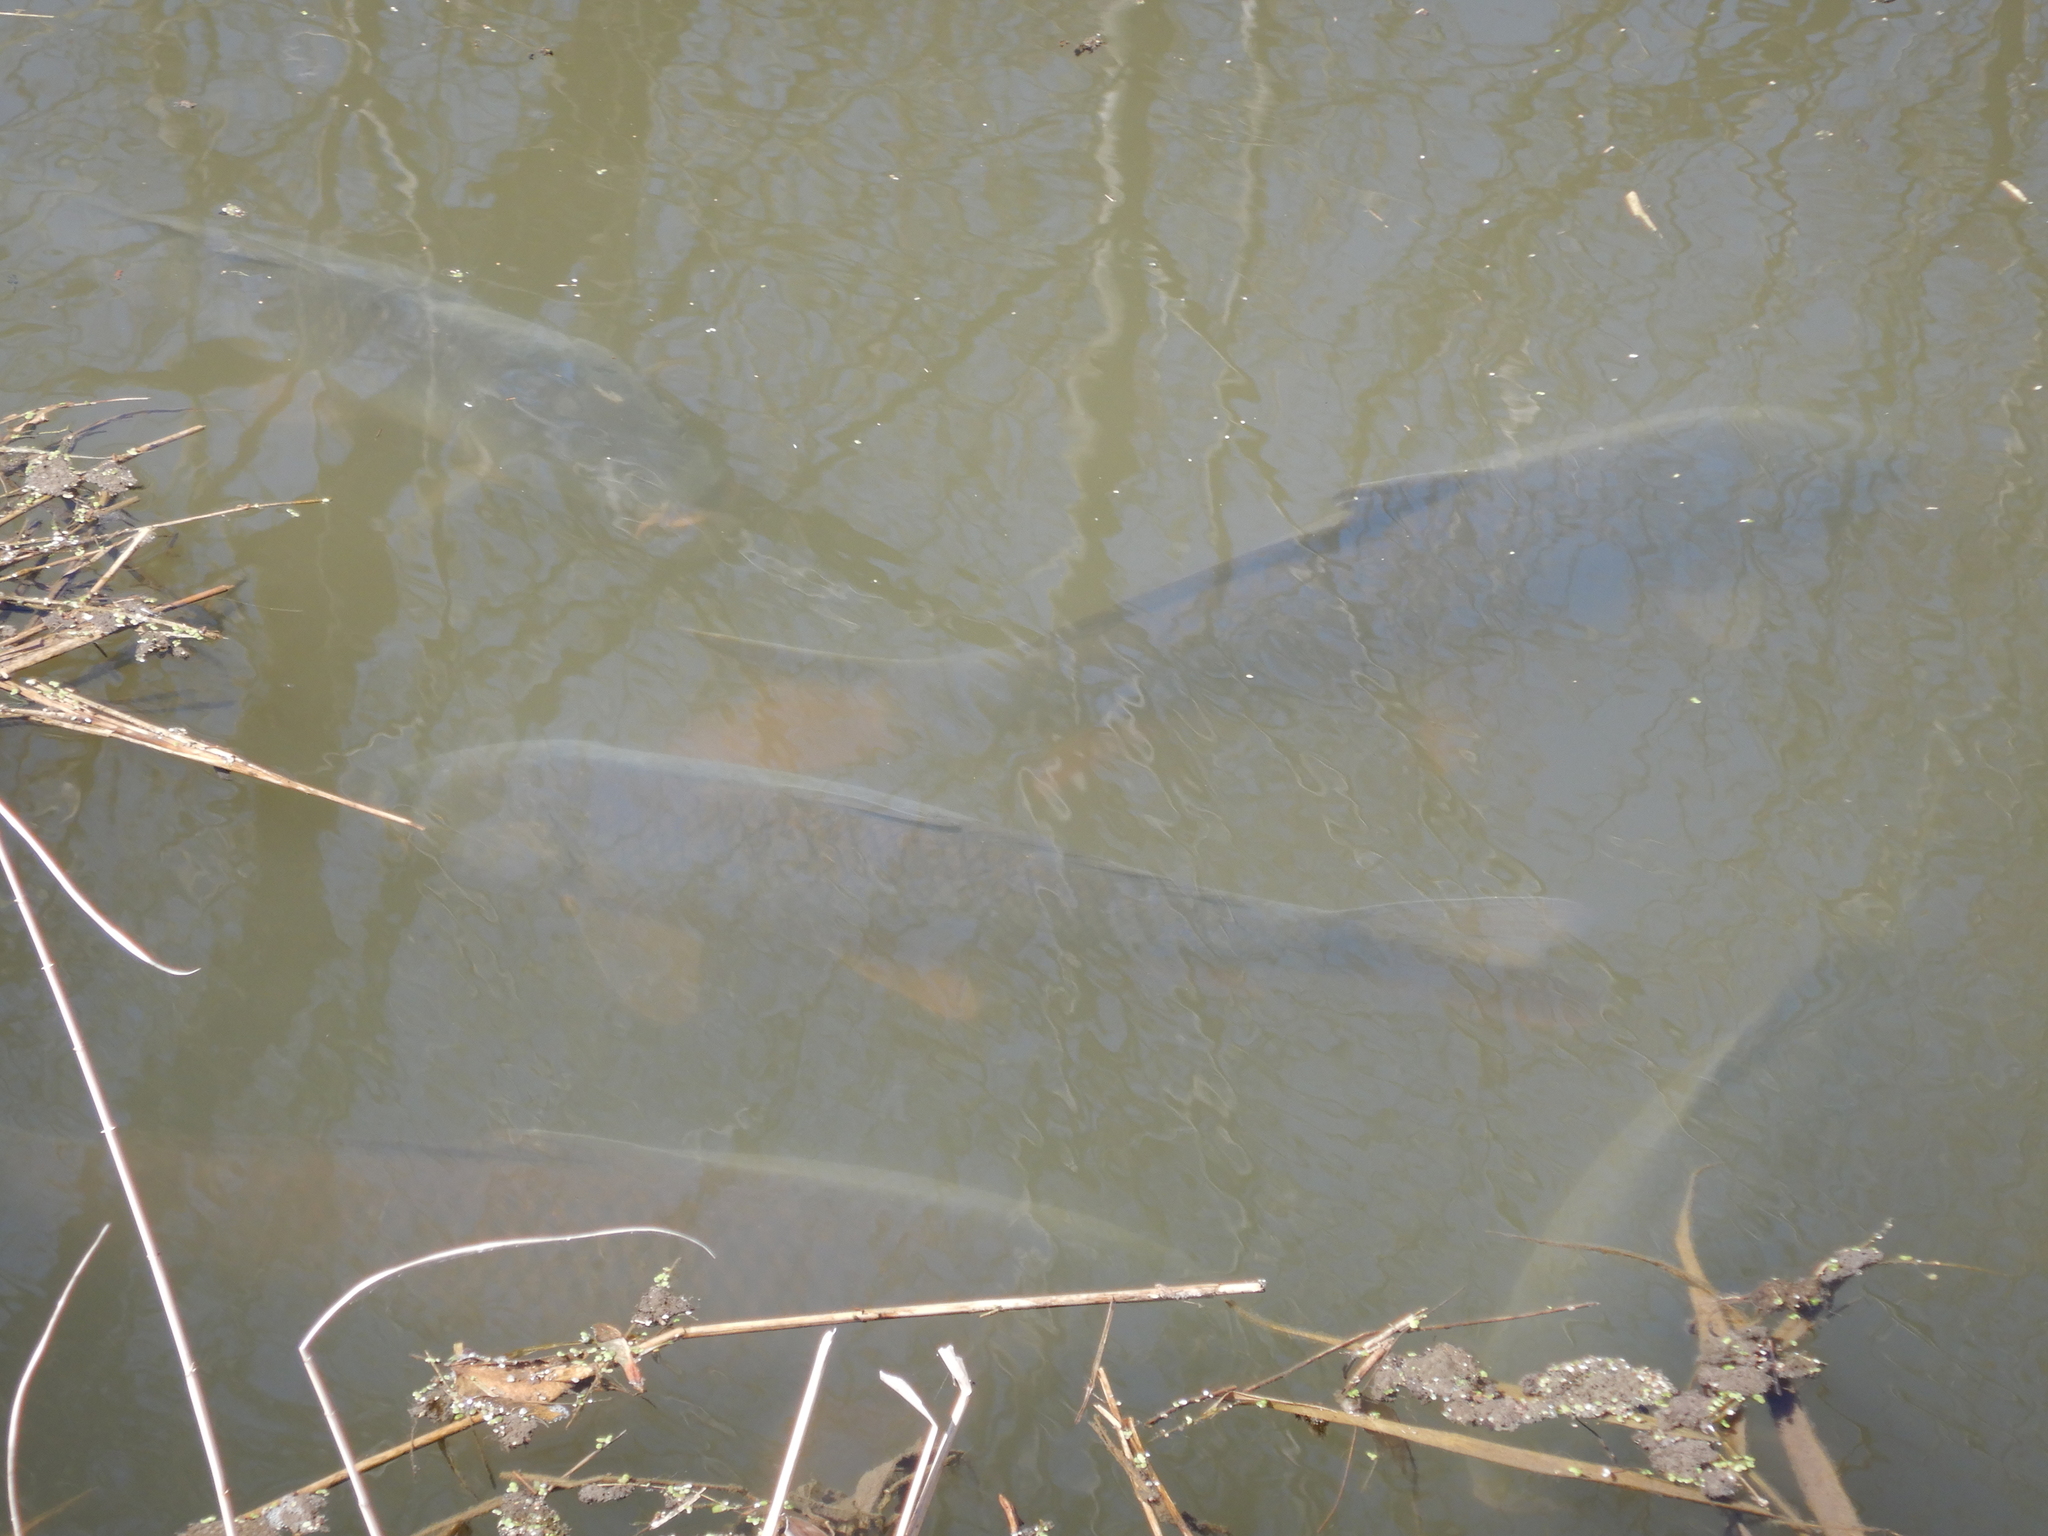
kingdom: Animalia
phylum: Chordata
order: Cypriniformes
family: Cyprinidae
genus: Cyprinus
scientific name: Cyprinus carpio
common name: Common carp
